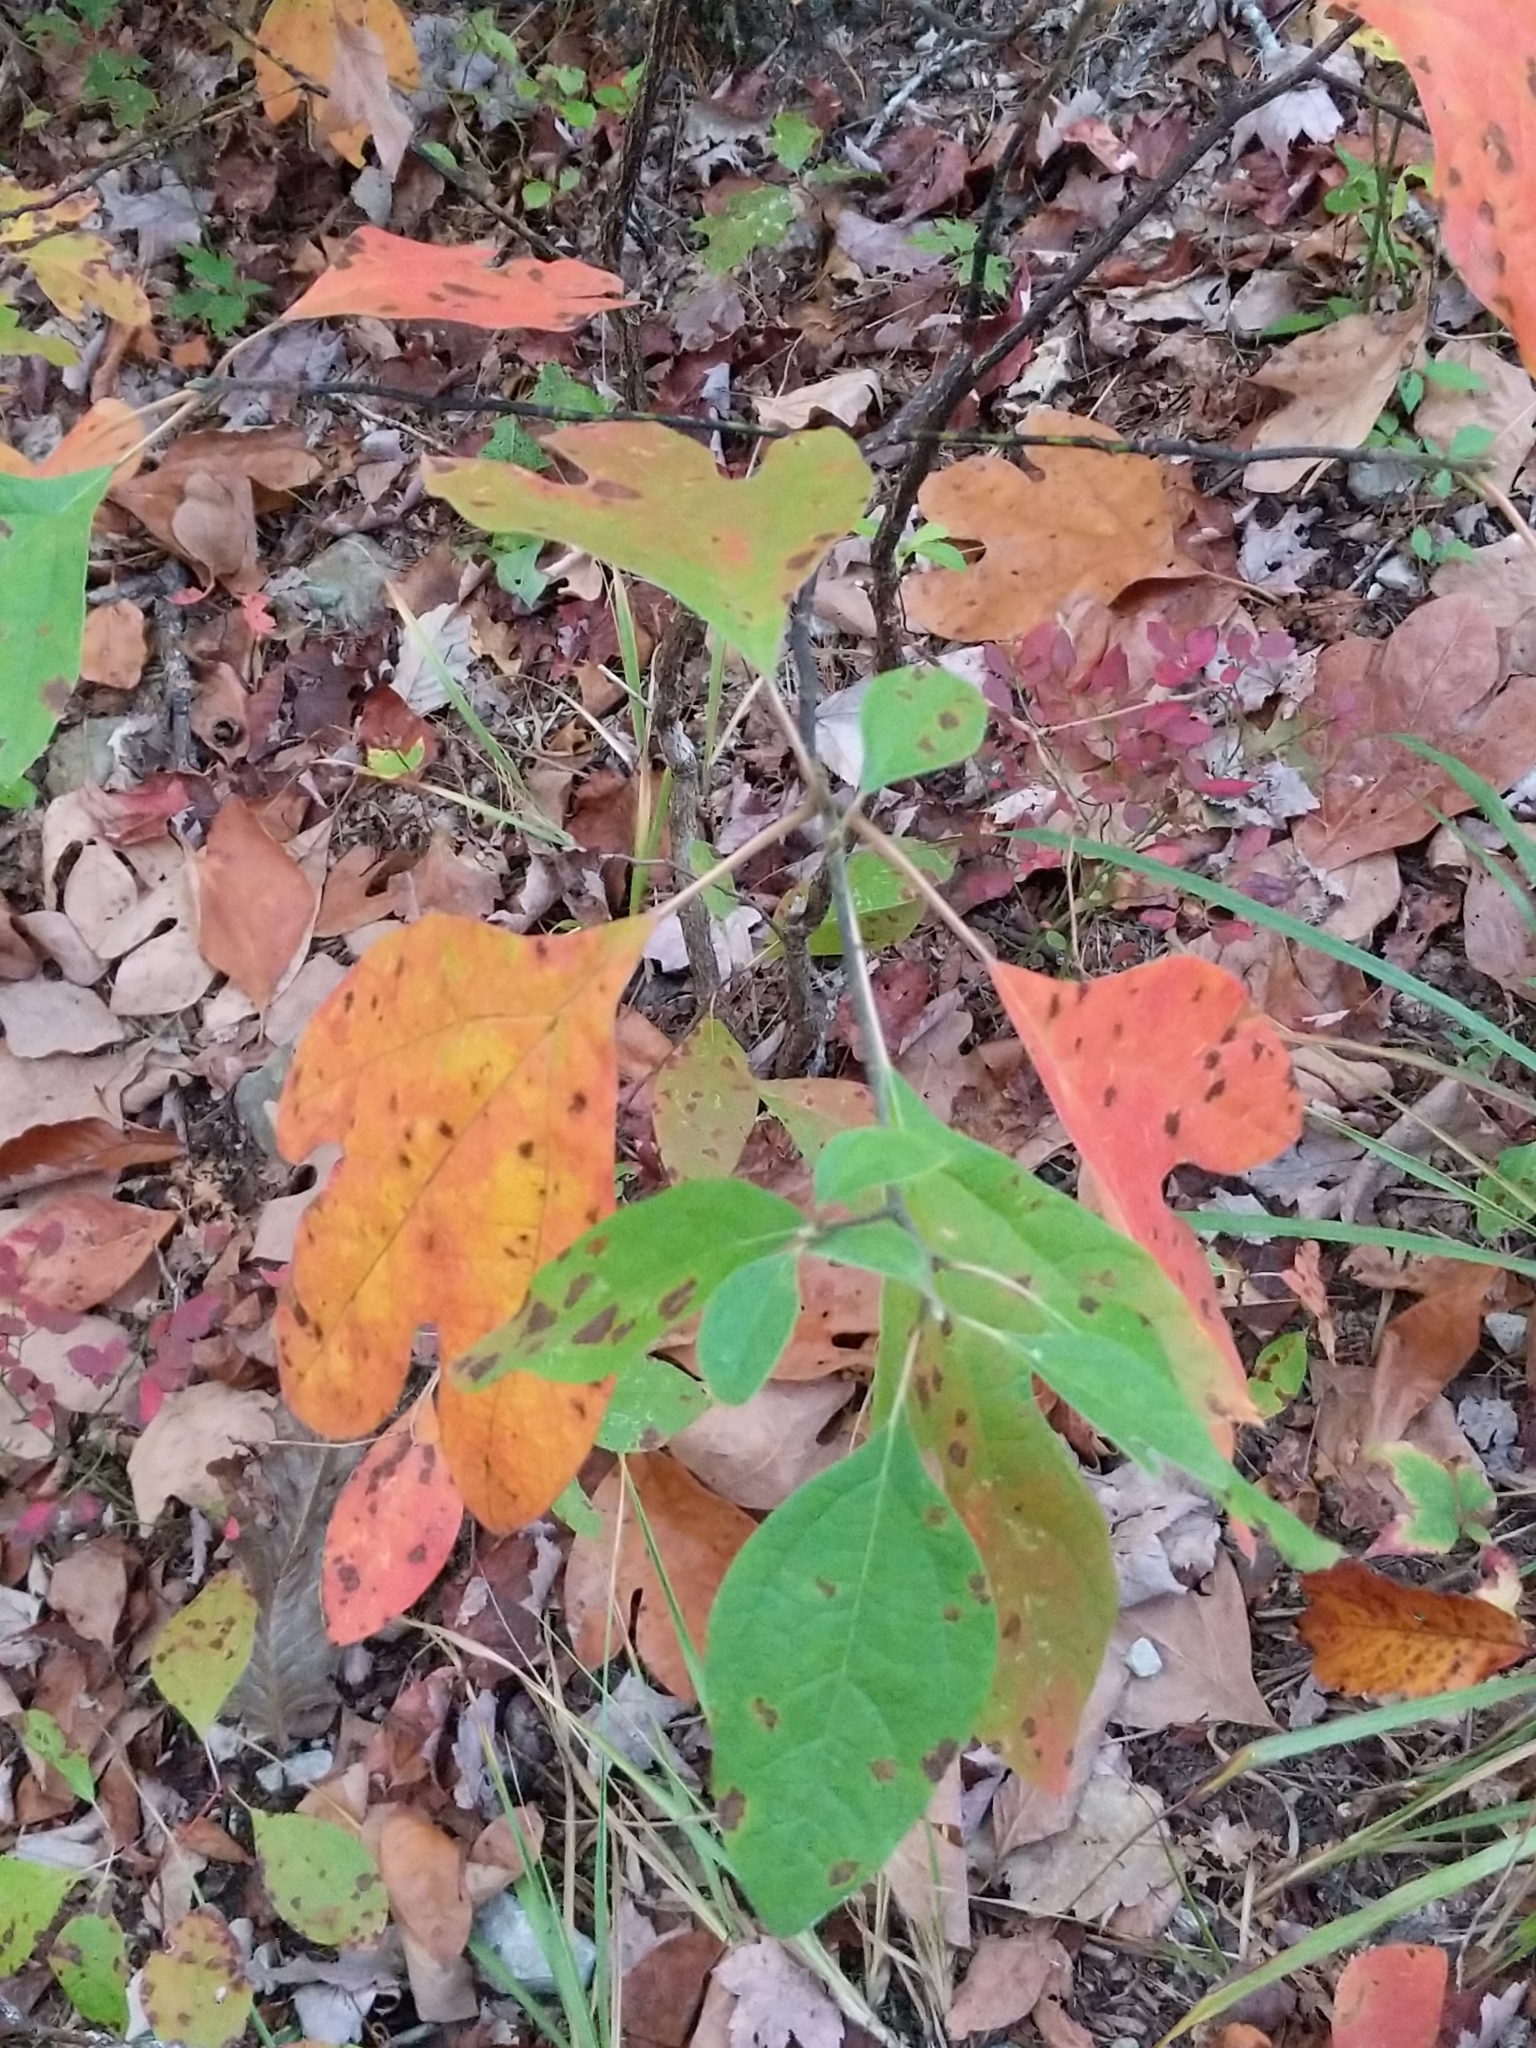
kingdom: Plantae
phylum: Tracheophyta
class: Magnoliopsida
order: Laurales
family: Lauraceae
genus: Sassafras
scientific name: Sassafras albidum
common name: Sassafras
